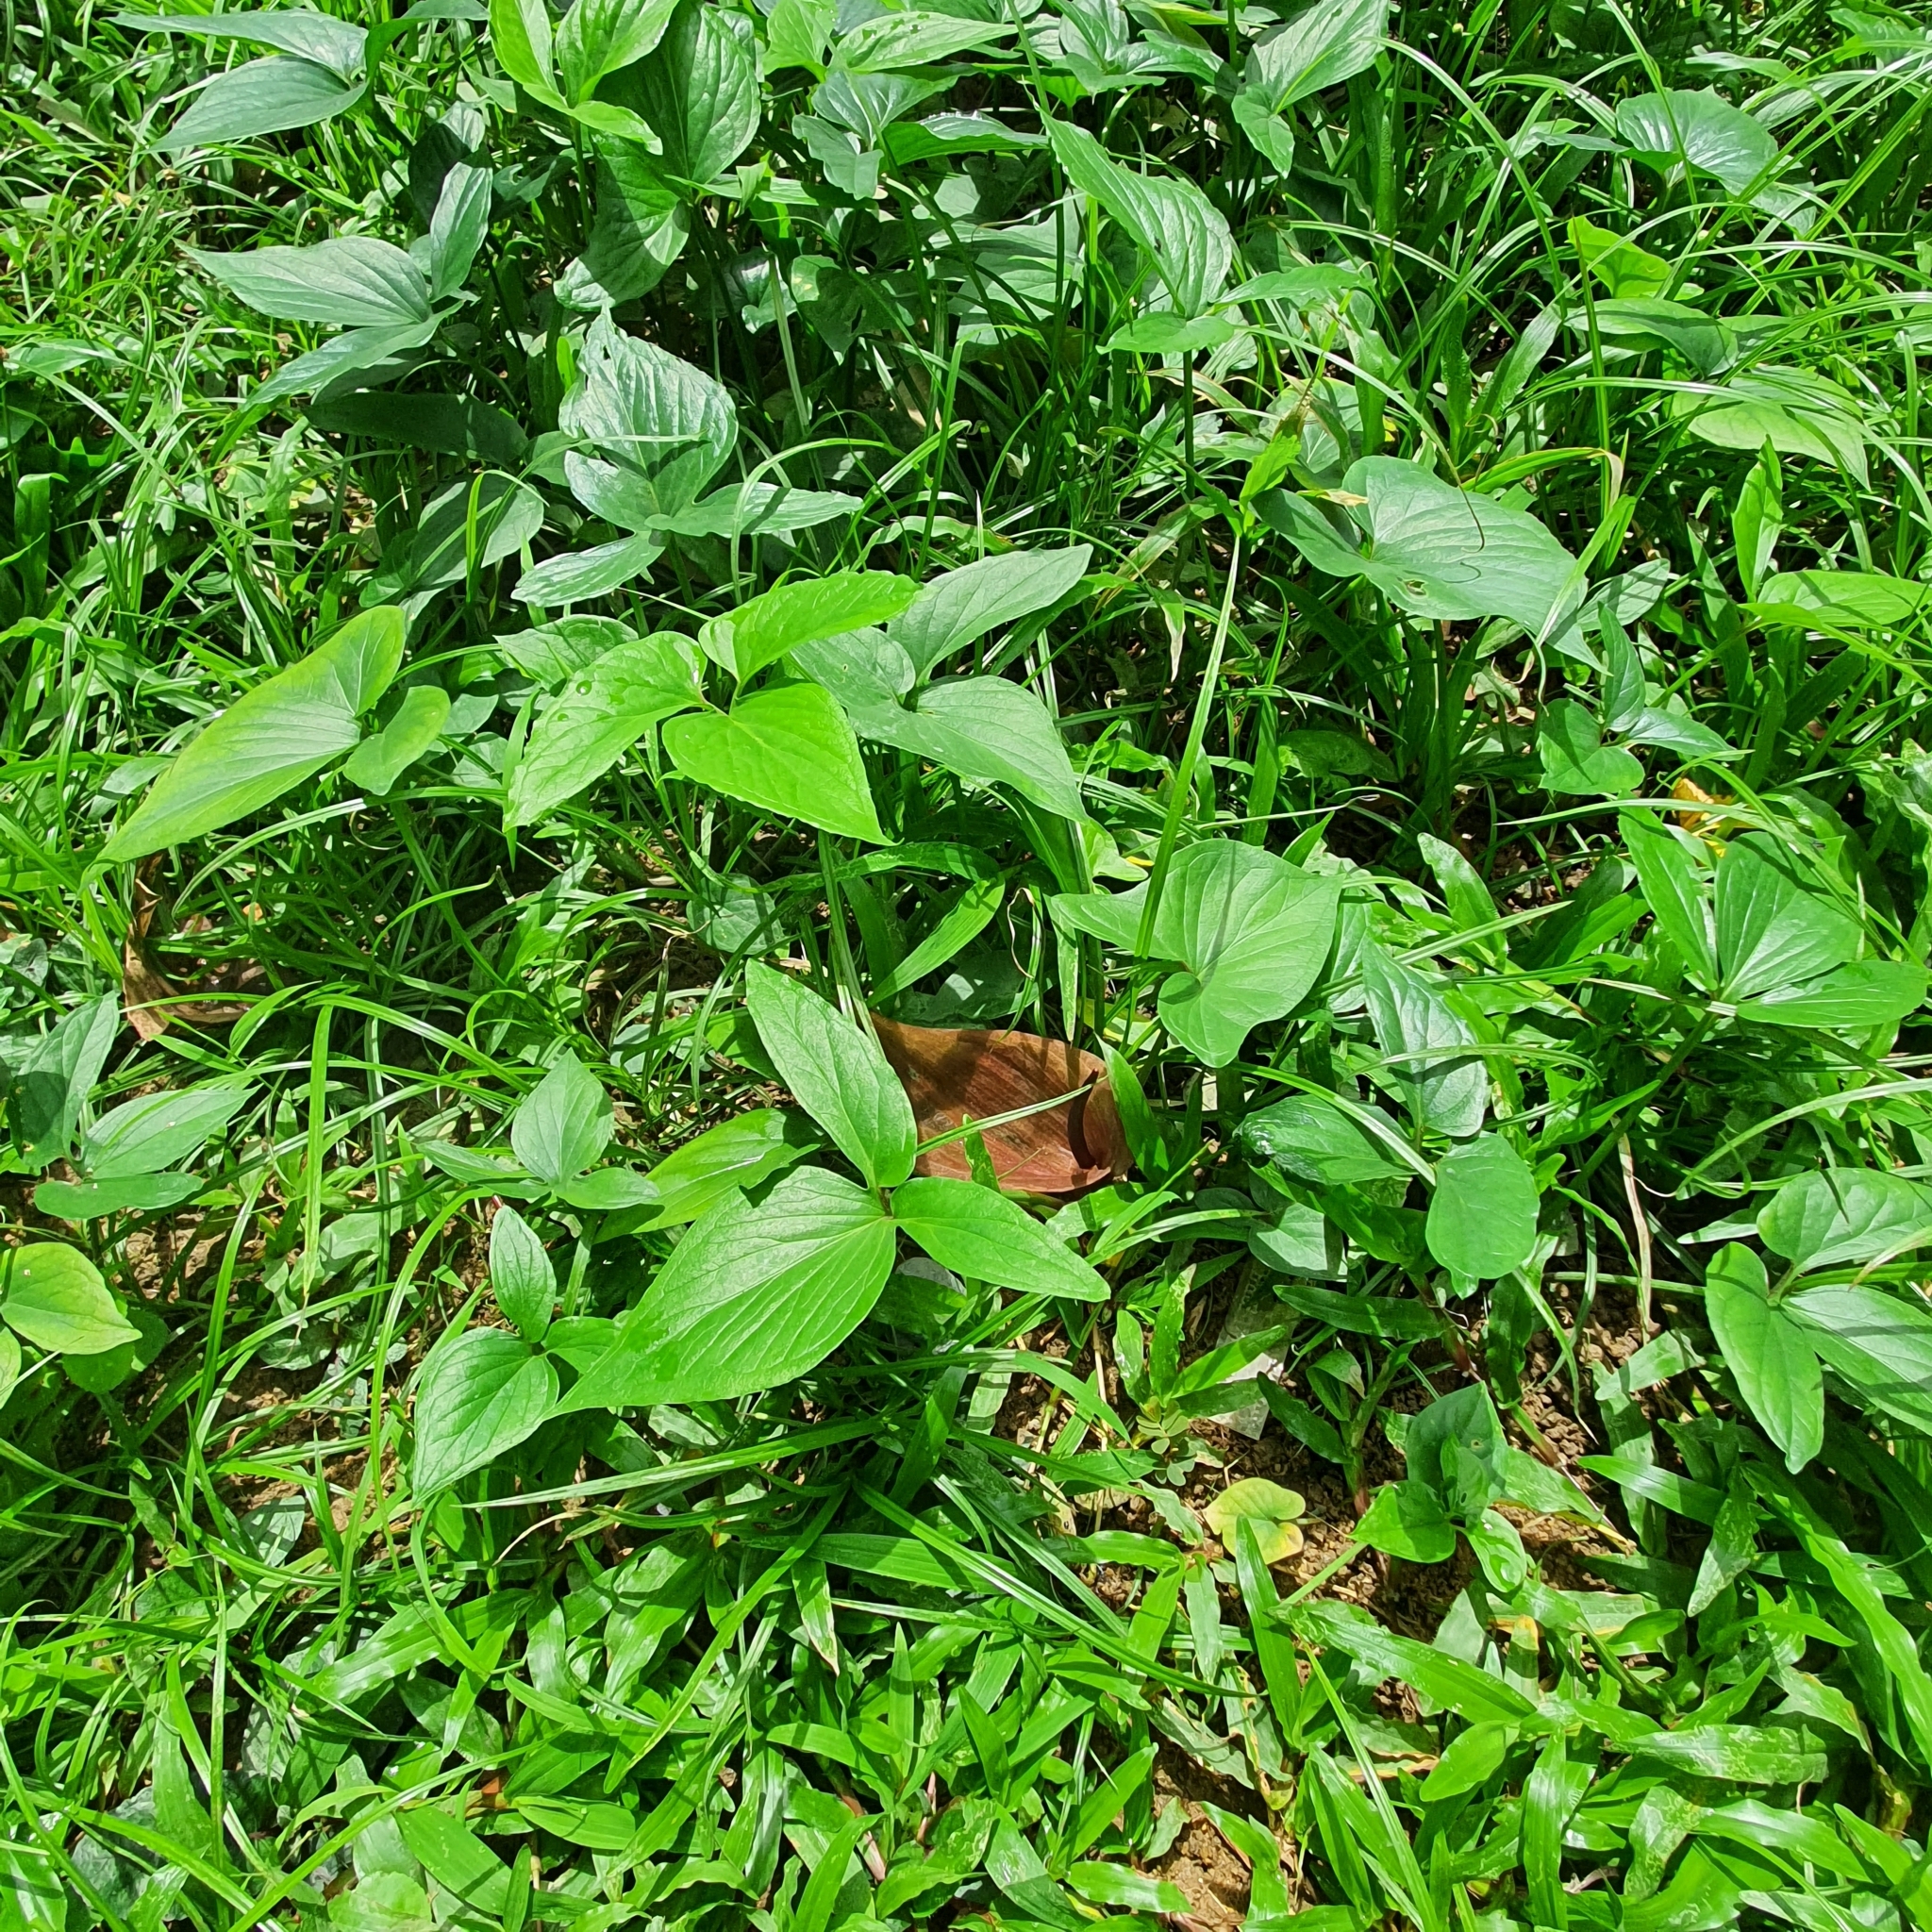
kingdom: Plantae
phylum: Tracheophyta
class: Liliopsida
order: Alismatales
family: Araceae
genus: Typhonium
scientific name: Typhonium roxburghii
